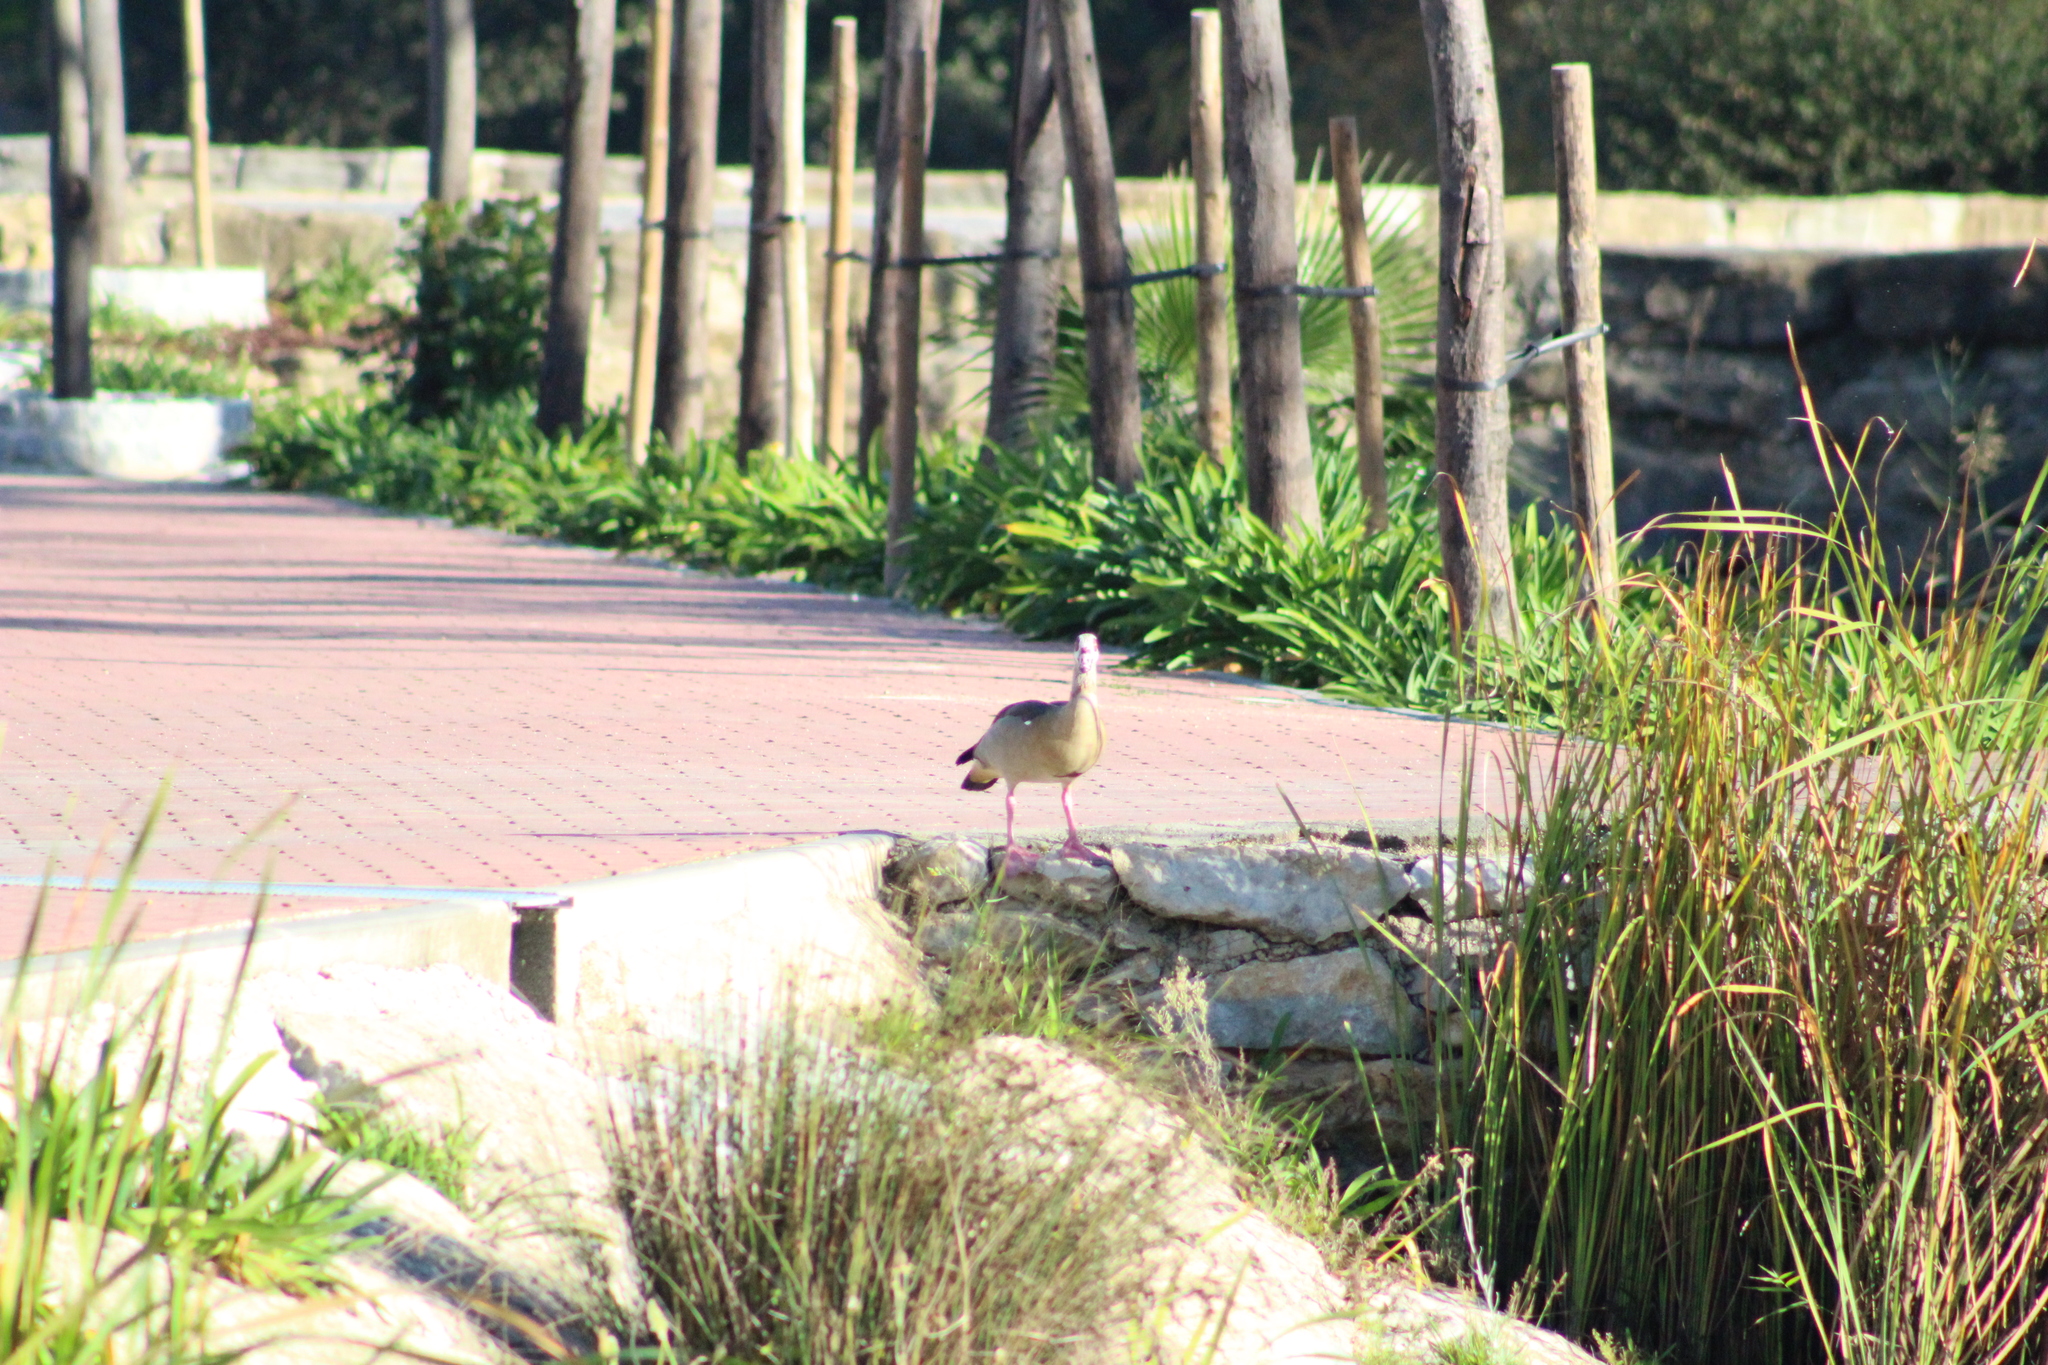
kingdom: Animalia
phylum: Chordata
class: Aves
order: Anseriformes
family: Anatidae
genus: Alopochen
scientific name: Alopochen aegyptiaca
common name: Egyptian goose
